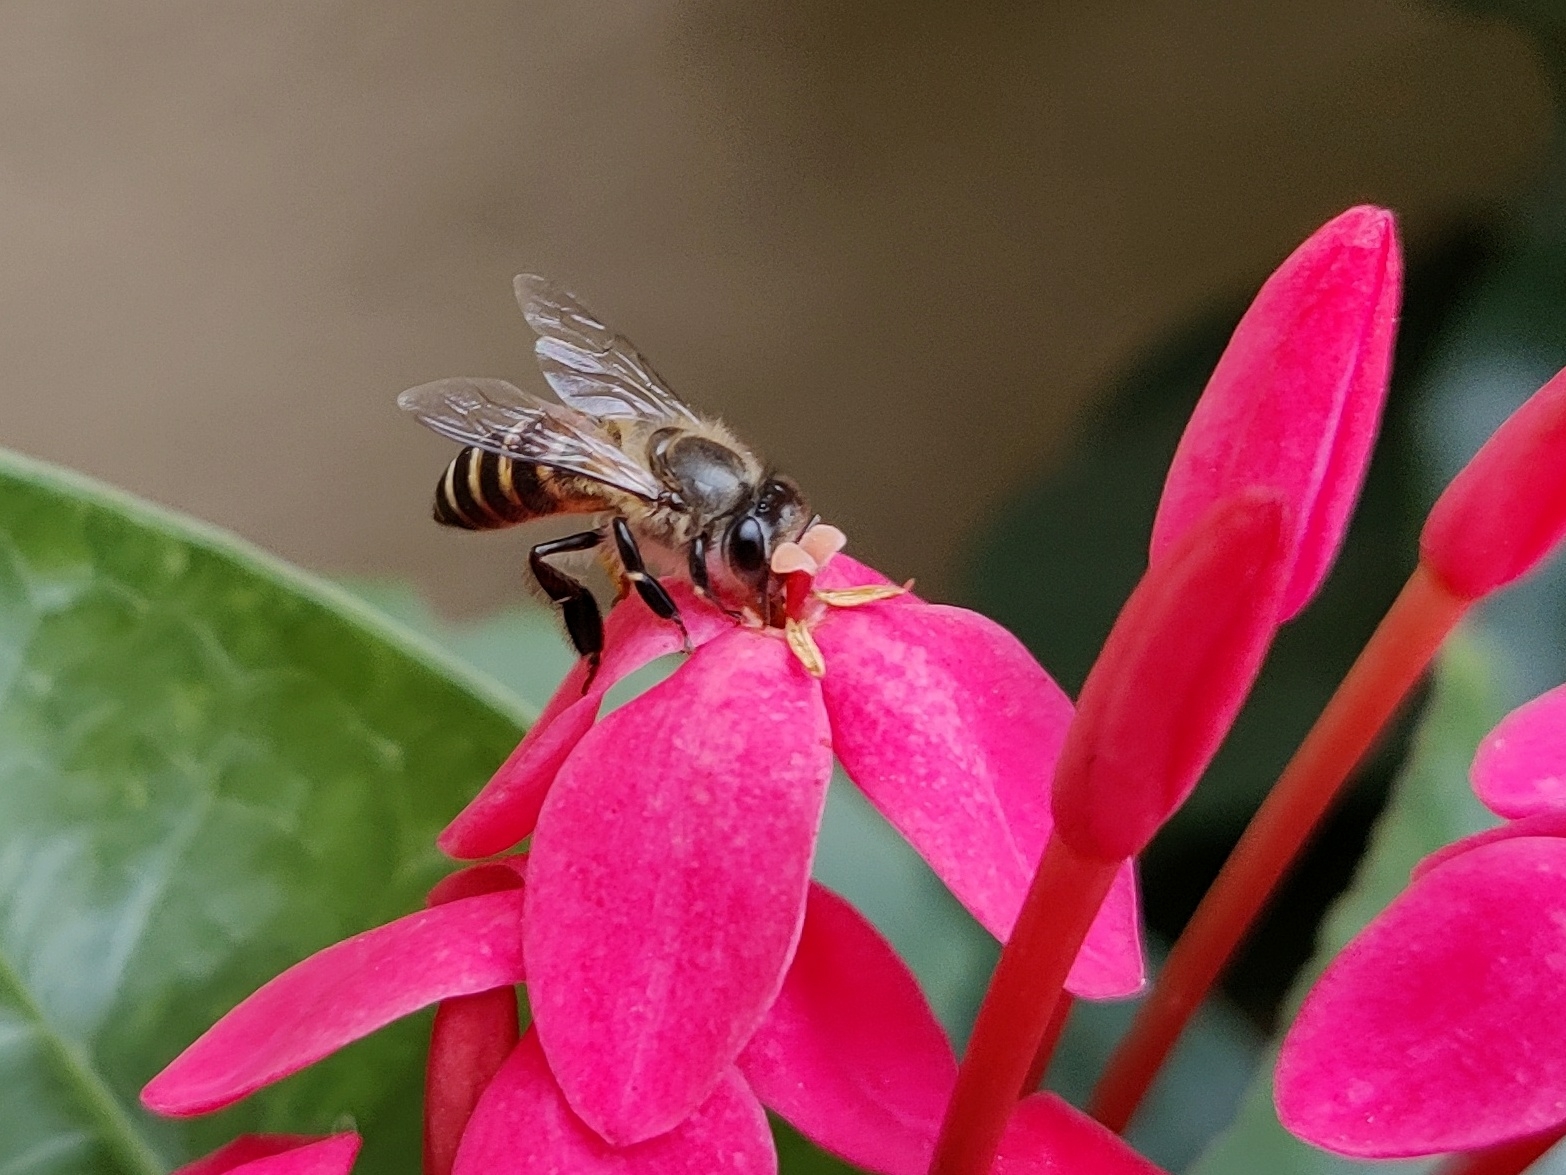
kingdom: Animalia
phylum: Arthropoda
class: Insecta
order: Hymenoptera
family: Apidae
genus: Apis
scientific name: Apis cerana
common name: Honey bee
